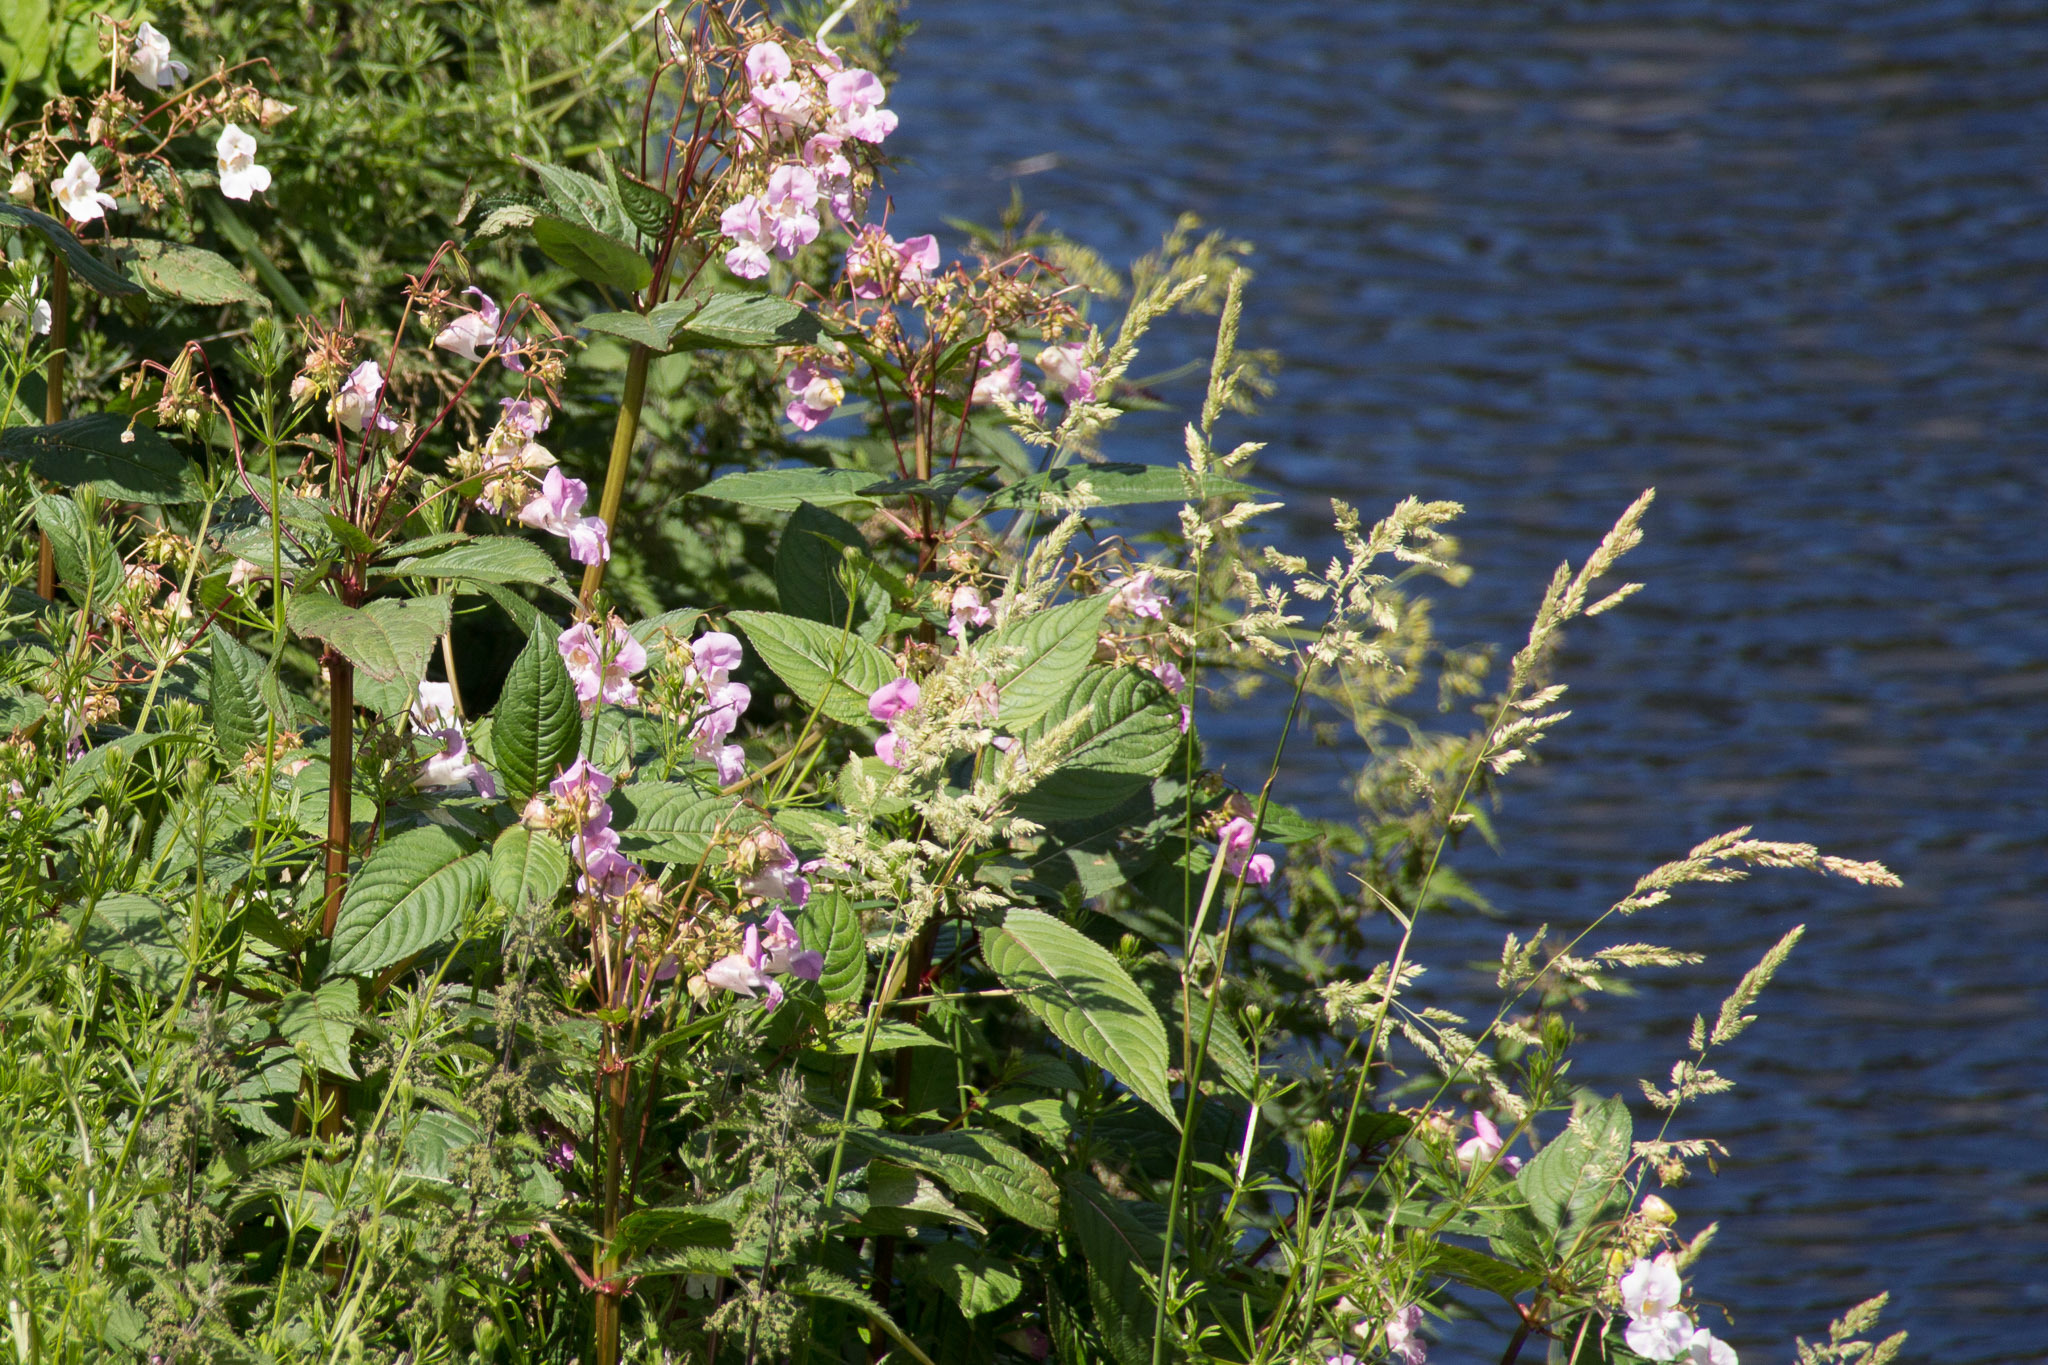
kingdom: Plantae
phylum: Tracheophyta
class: Magnoliopsida
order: Ericales
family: Balsaminaceae
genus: Impatiens
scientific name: Impatiens glandulifera
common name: Himalayan balsam
